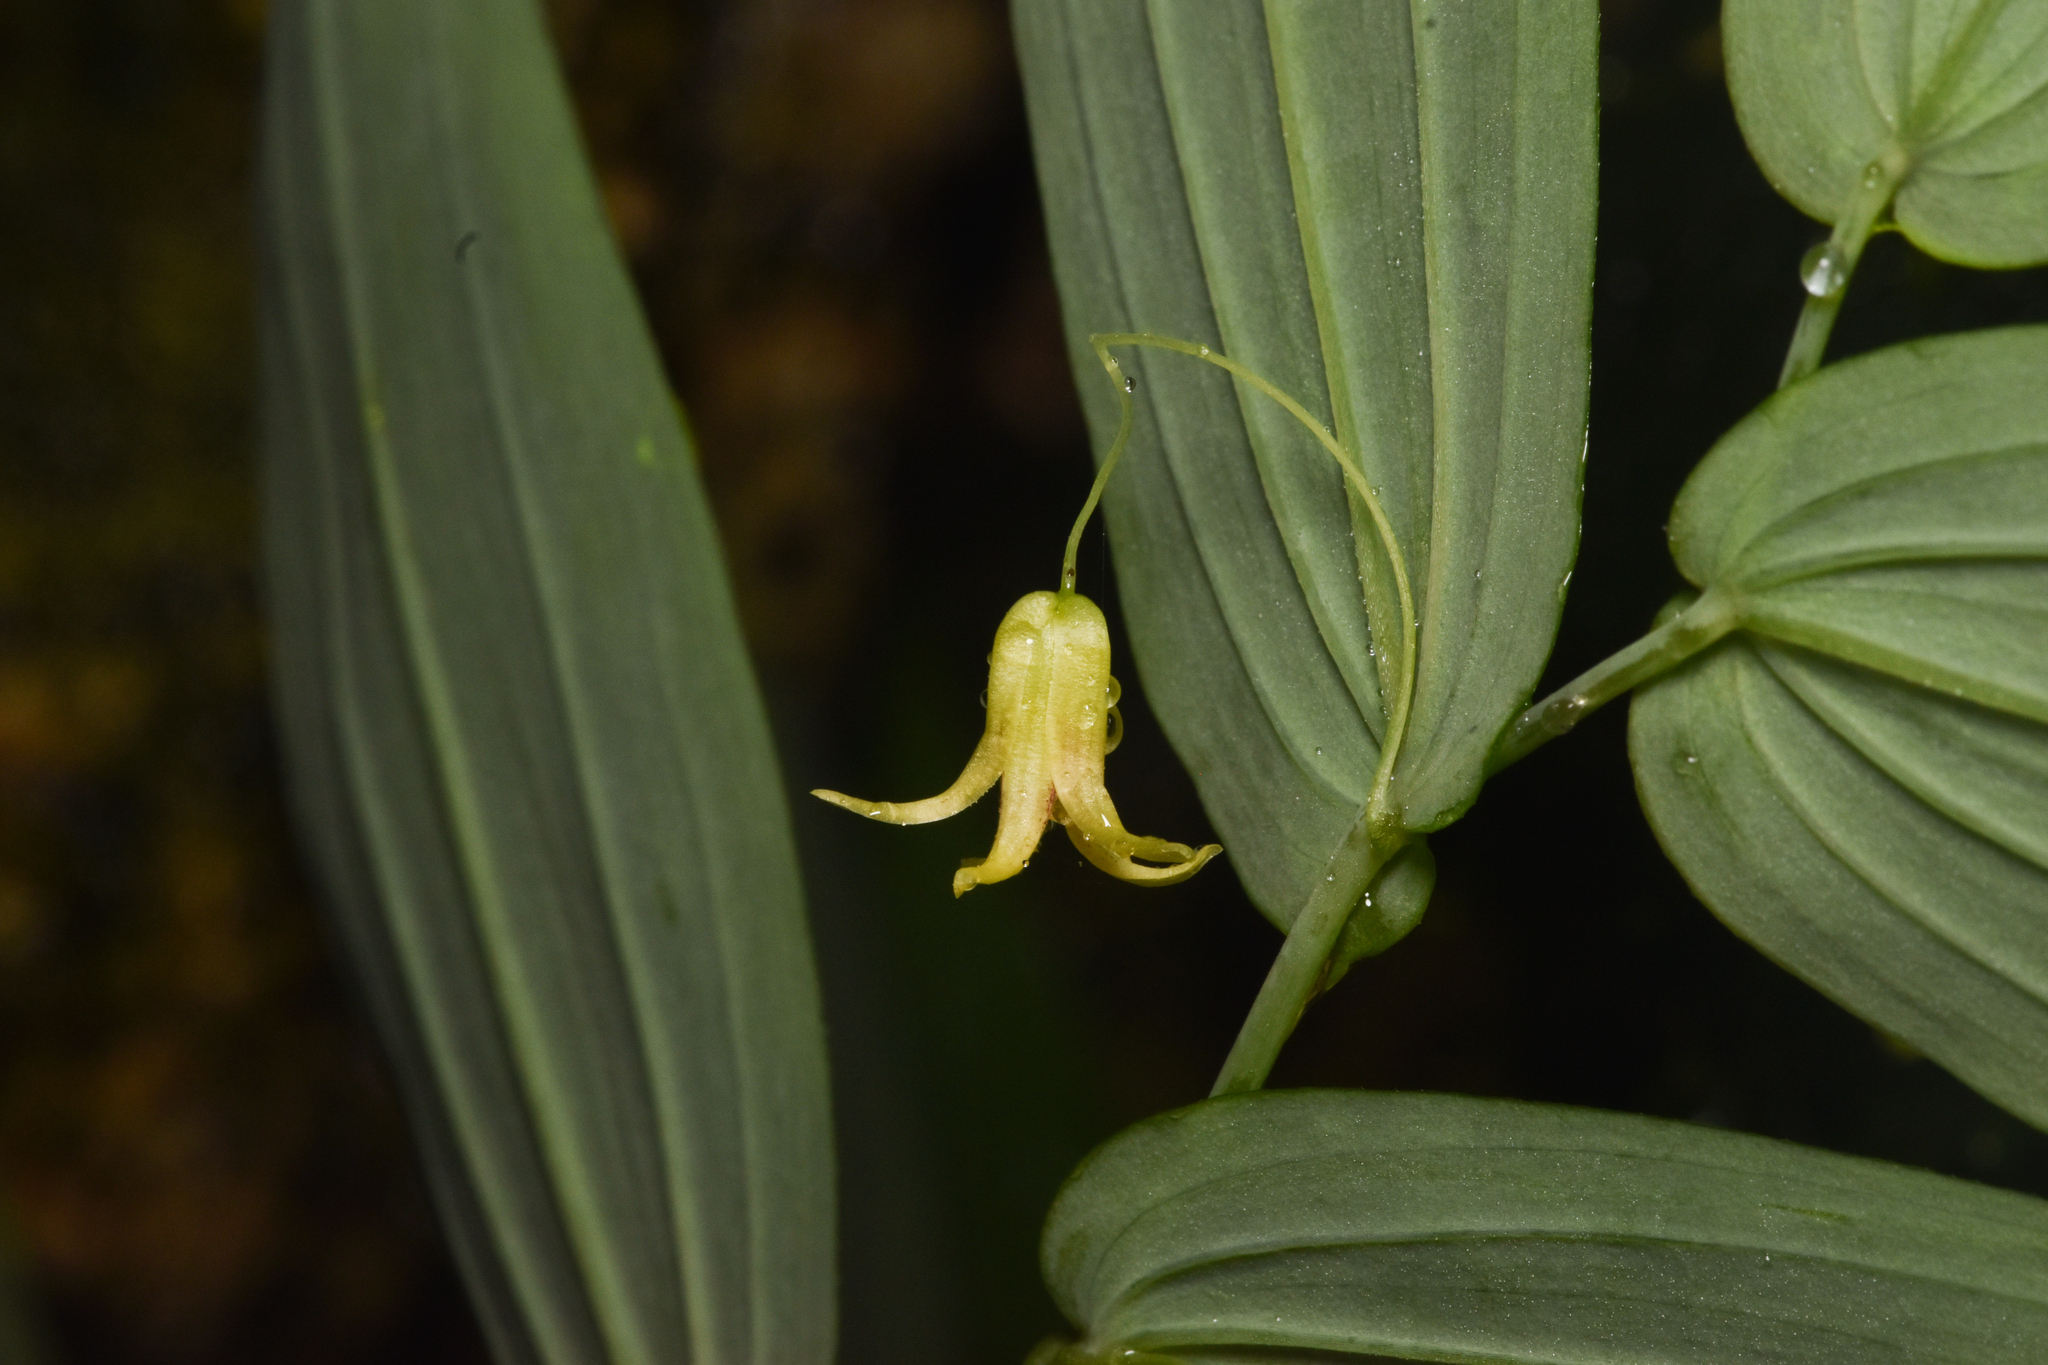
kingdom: Plantae
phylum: Tracheophyta
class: Liliopsida
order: Liliales
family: Liliaceae
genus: Streptopus
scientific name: Streptopus amplexifolius
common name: Clasp twisted stalk
